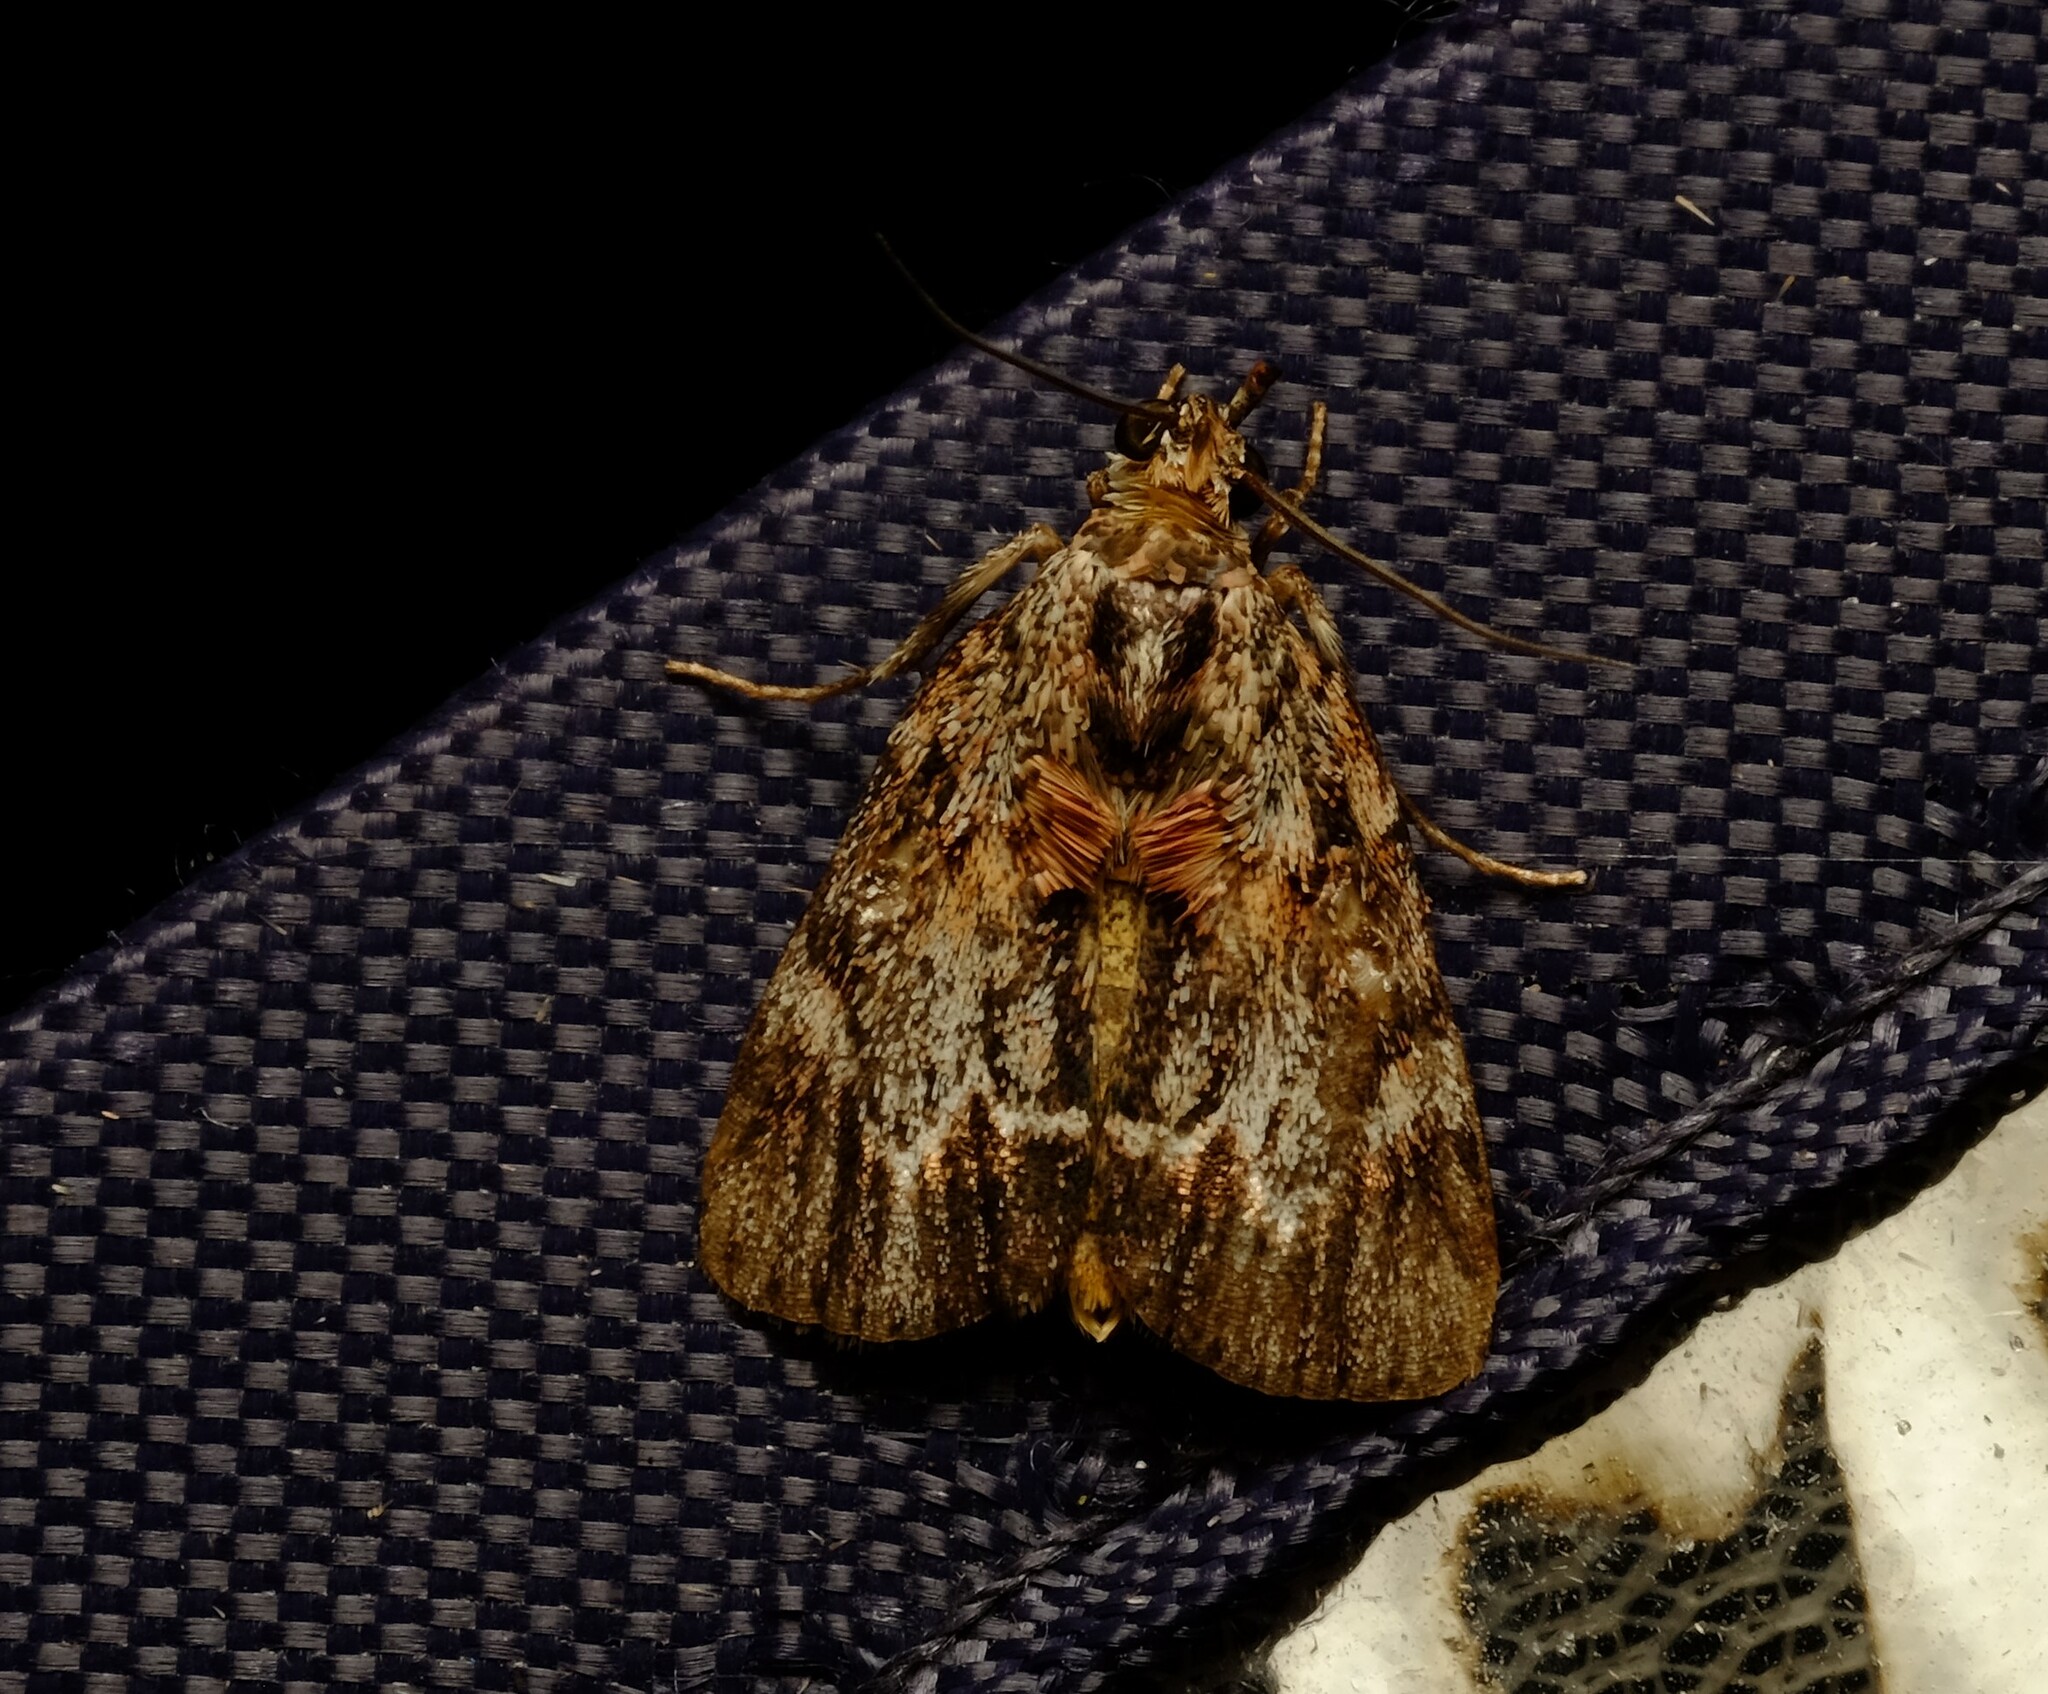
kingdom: Animalia
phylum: Arthropoda
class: Insecta
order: Lepidoptera
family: Pyralidae
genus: Spectrotrota
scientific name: Spectrotrota fimbrialis
